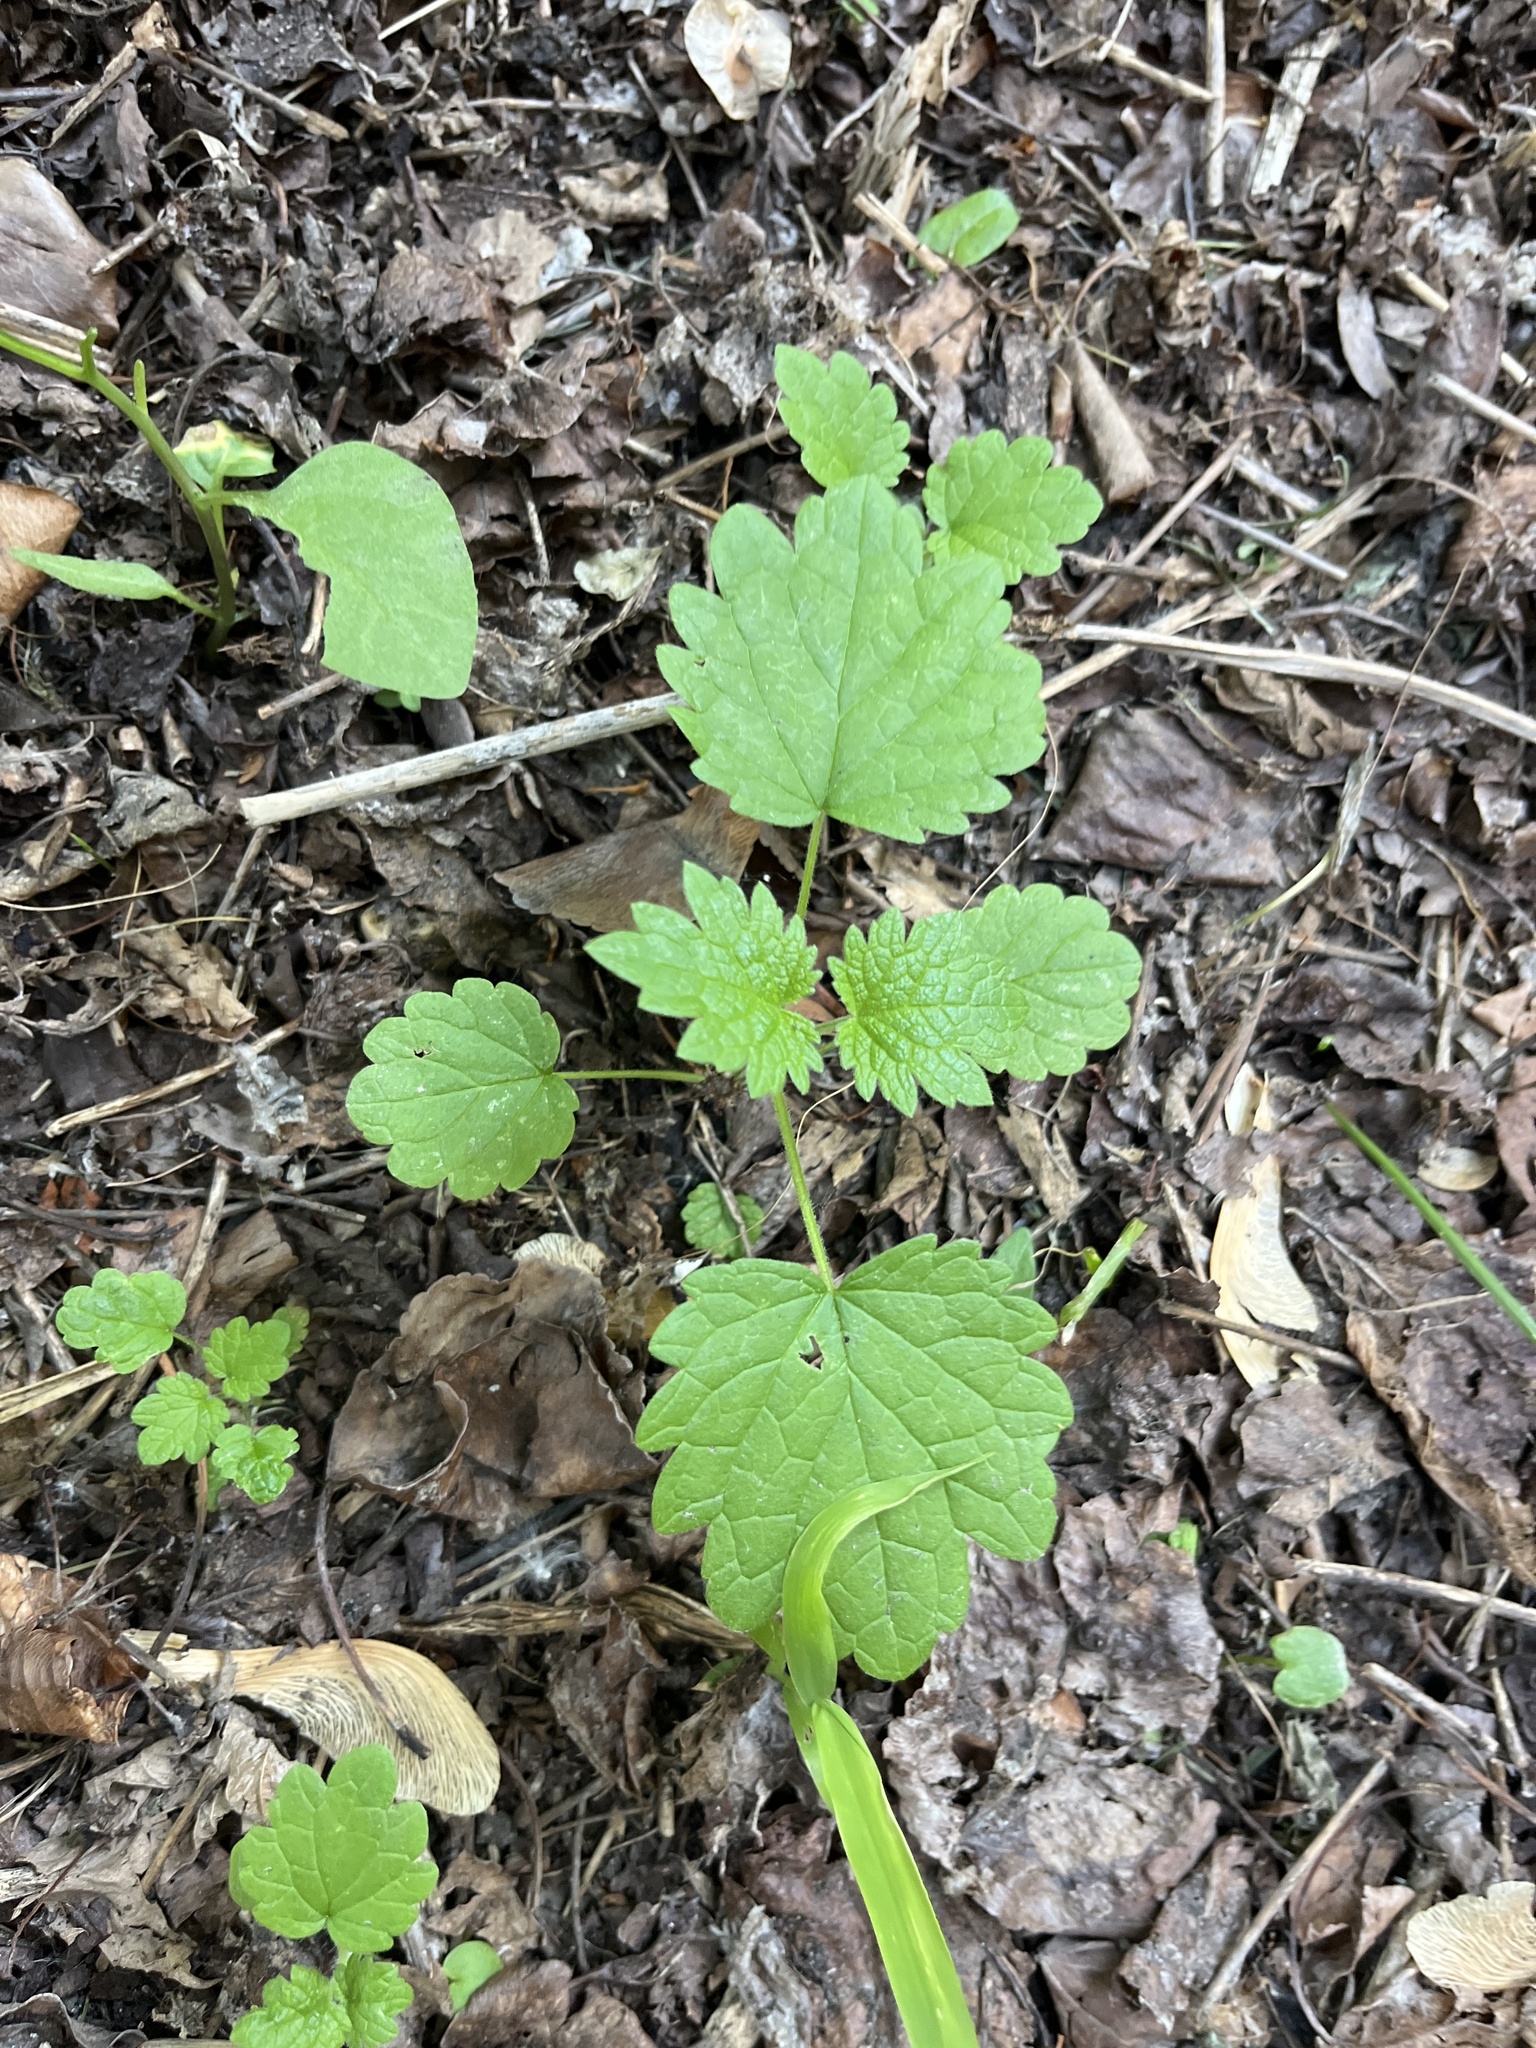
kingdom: Plantae
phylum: Tracheophyta
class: Magnoliopsida
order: Lamiales
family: Lamiaceae
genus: Leonurus
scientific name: Leonurus cardiaca
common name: Motherwort
